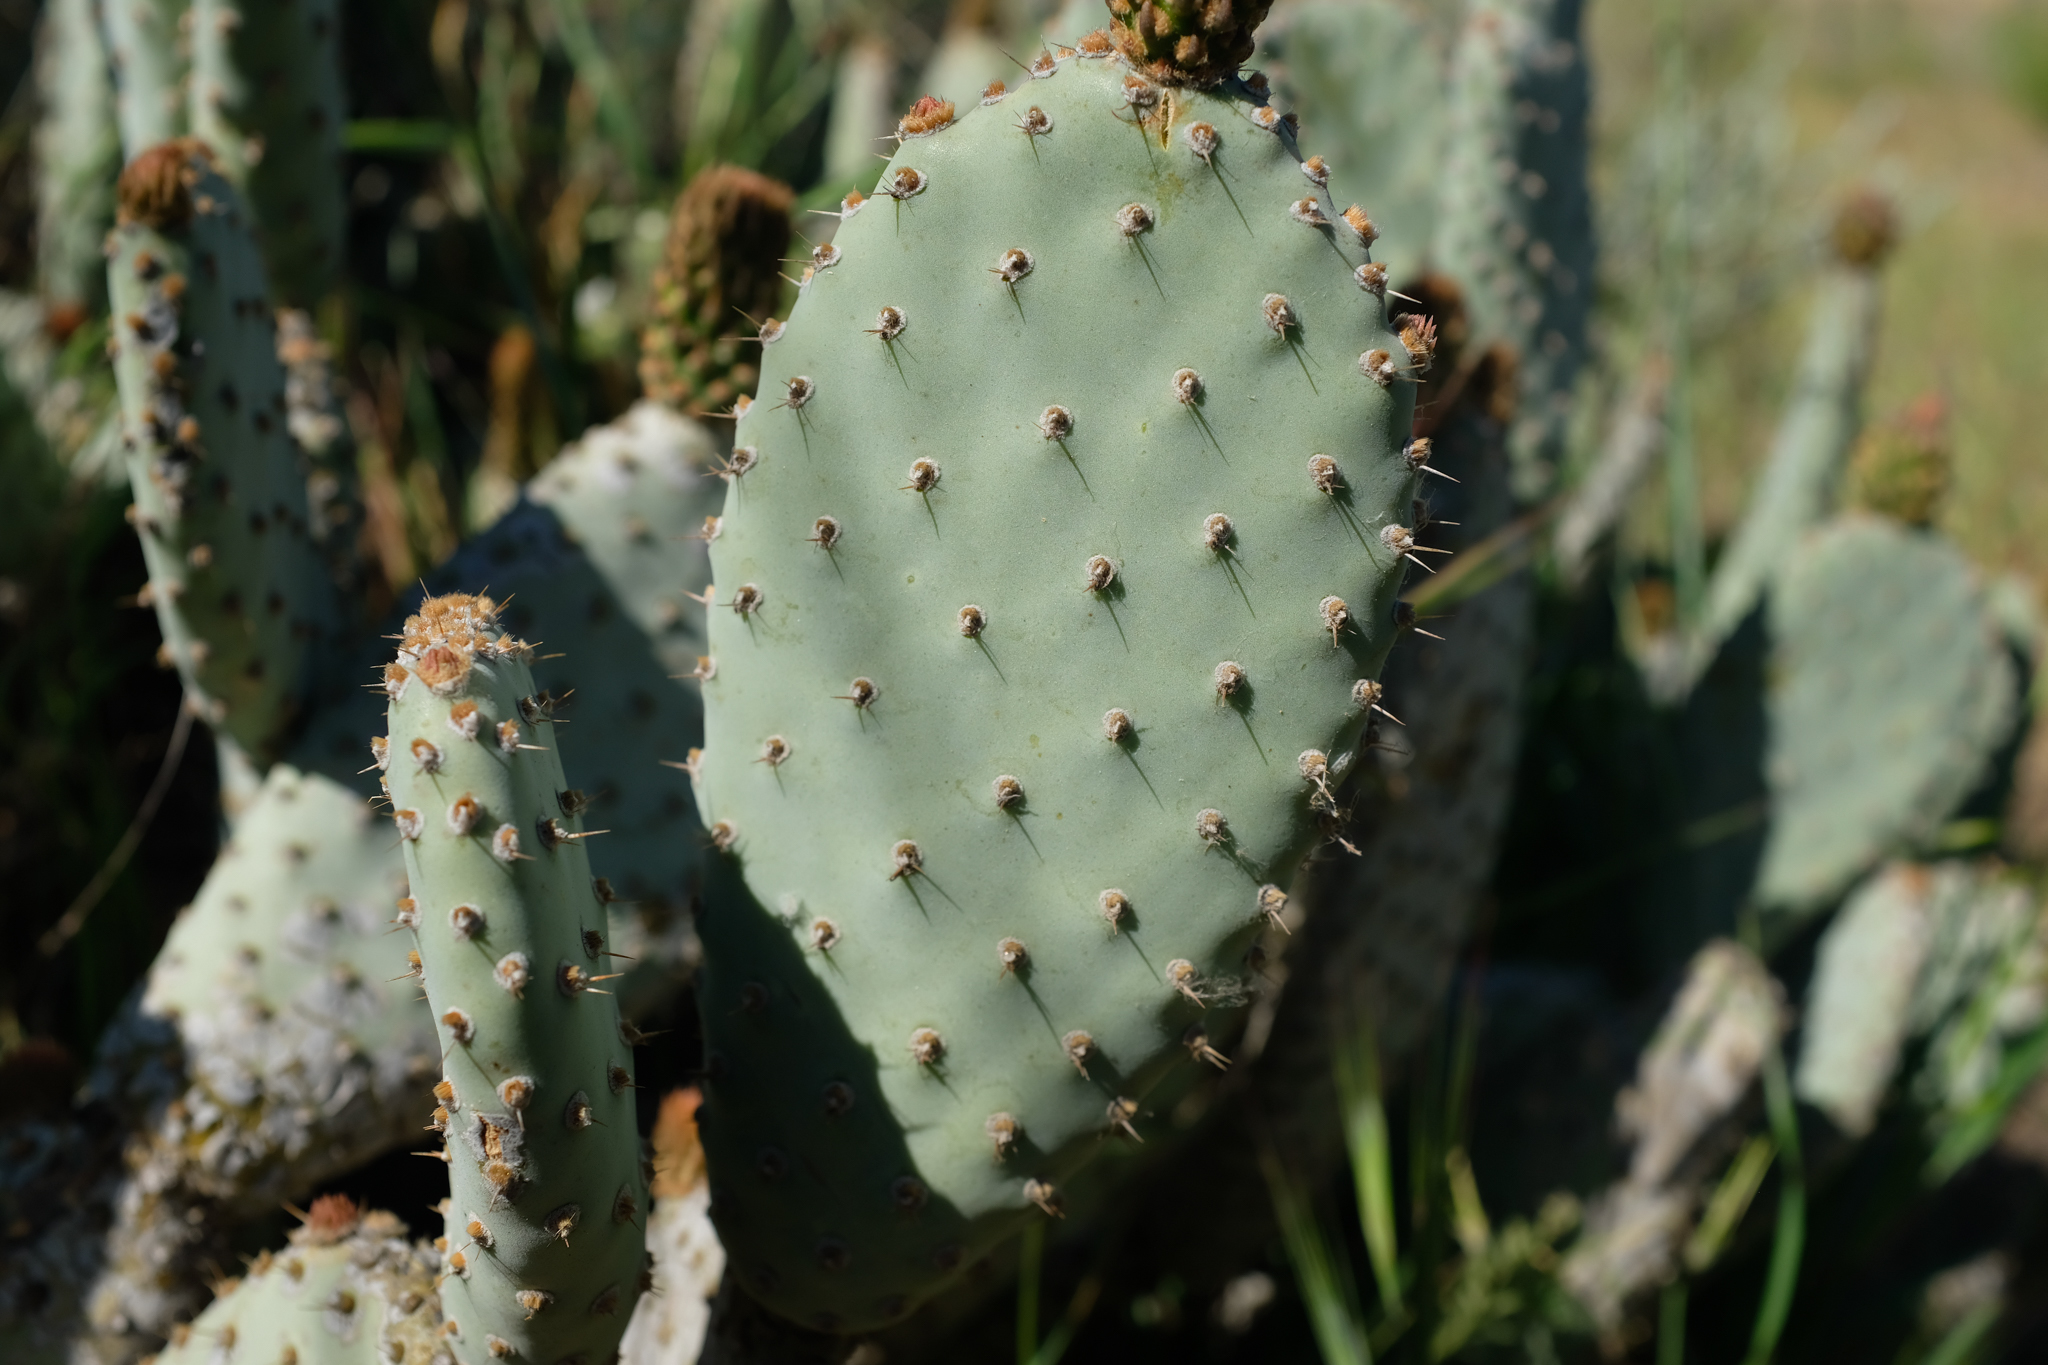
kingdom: Plantae
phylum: Tracheophyta
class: Magnoliopsida
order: Caryophyllales
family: Cactaceae
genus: Opuntia
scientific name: Opuntia basilaris
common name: Beavertail prickly-pear
